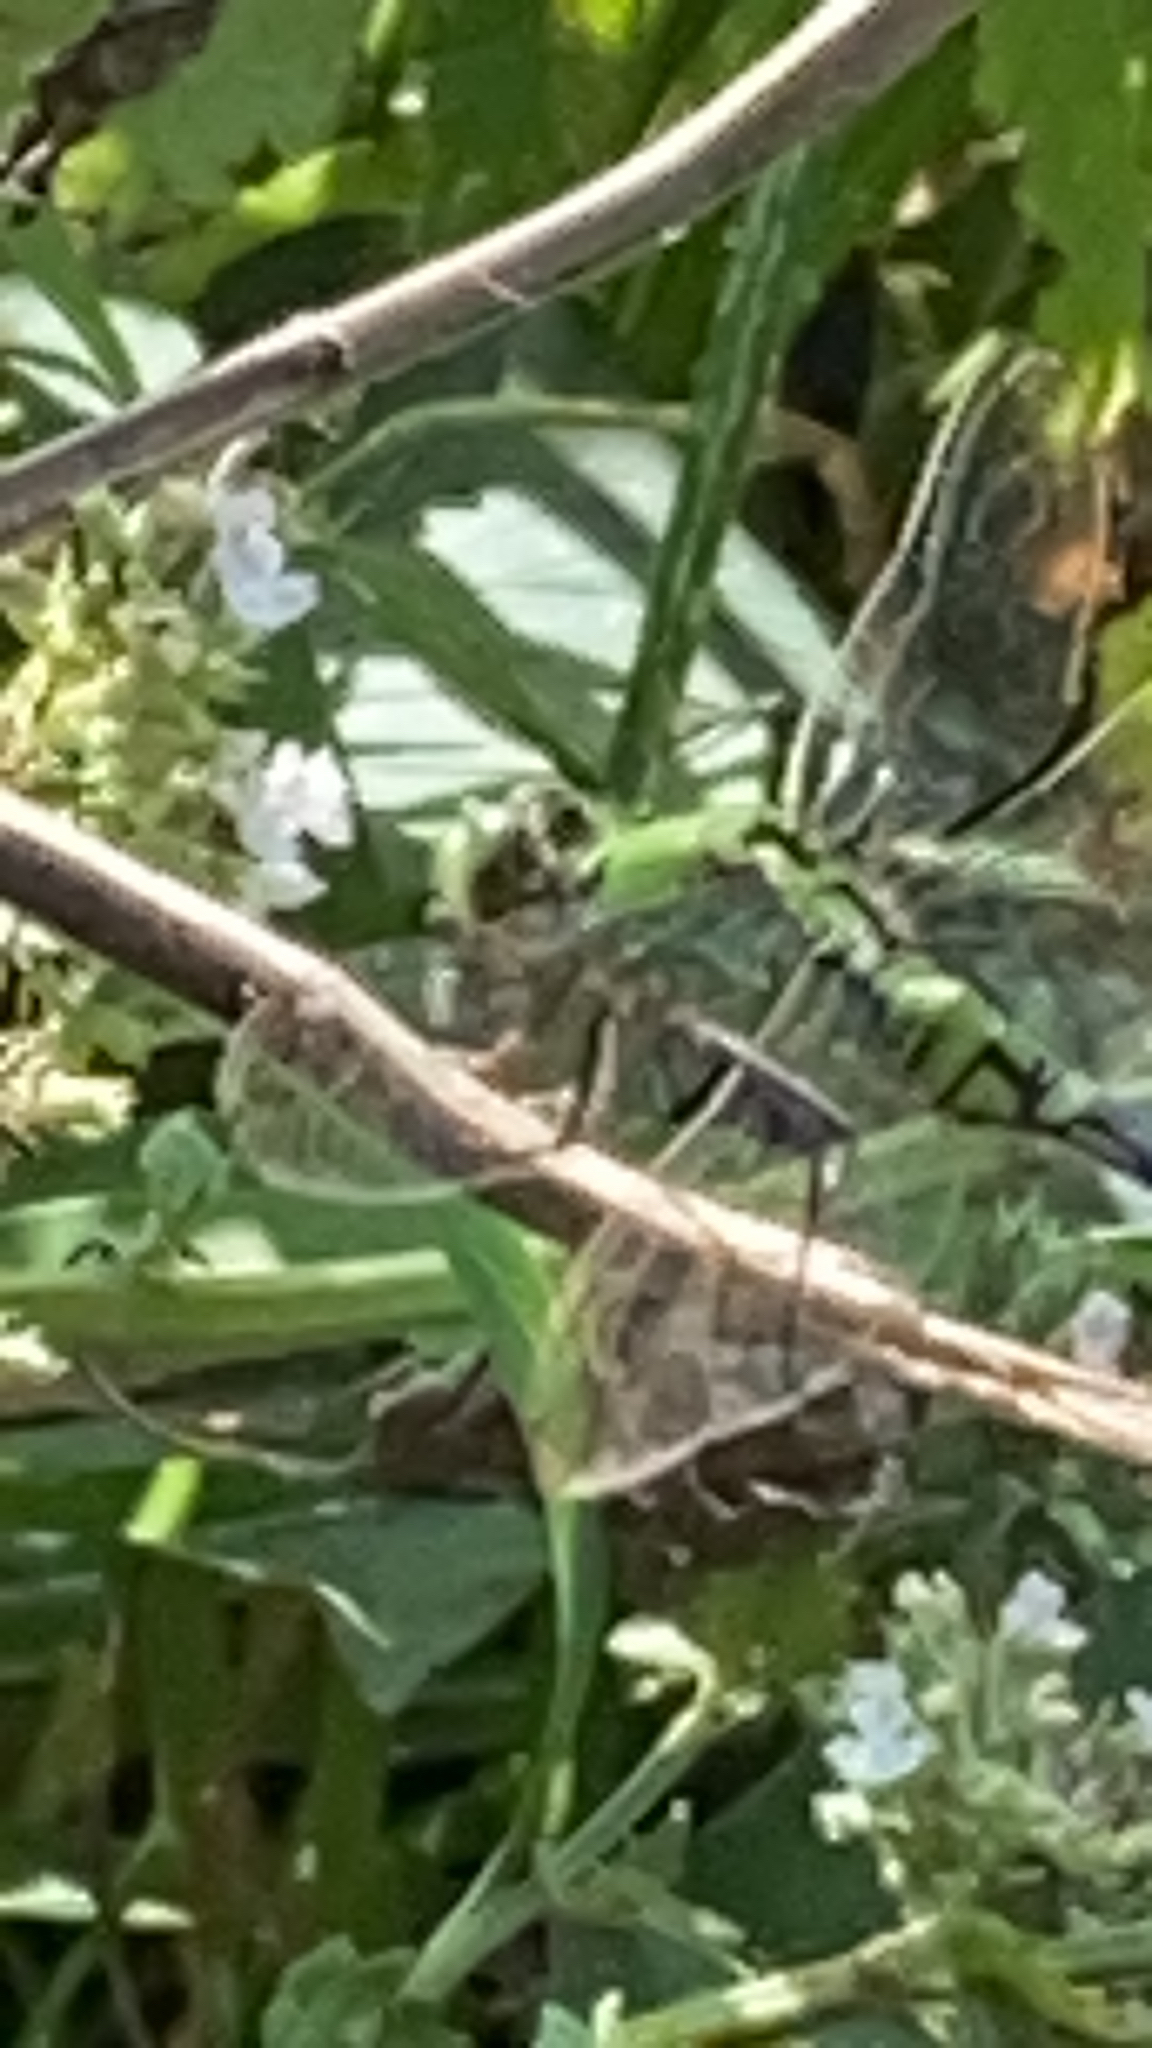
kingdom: Animalia
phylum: Arthropoda
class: Insecta
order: Odonata
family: Libellulidae
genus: Erythemis
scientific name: Erythemis simplicicollis
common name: Eastern pondhawk
